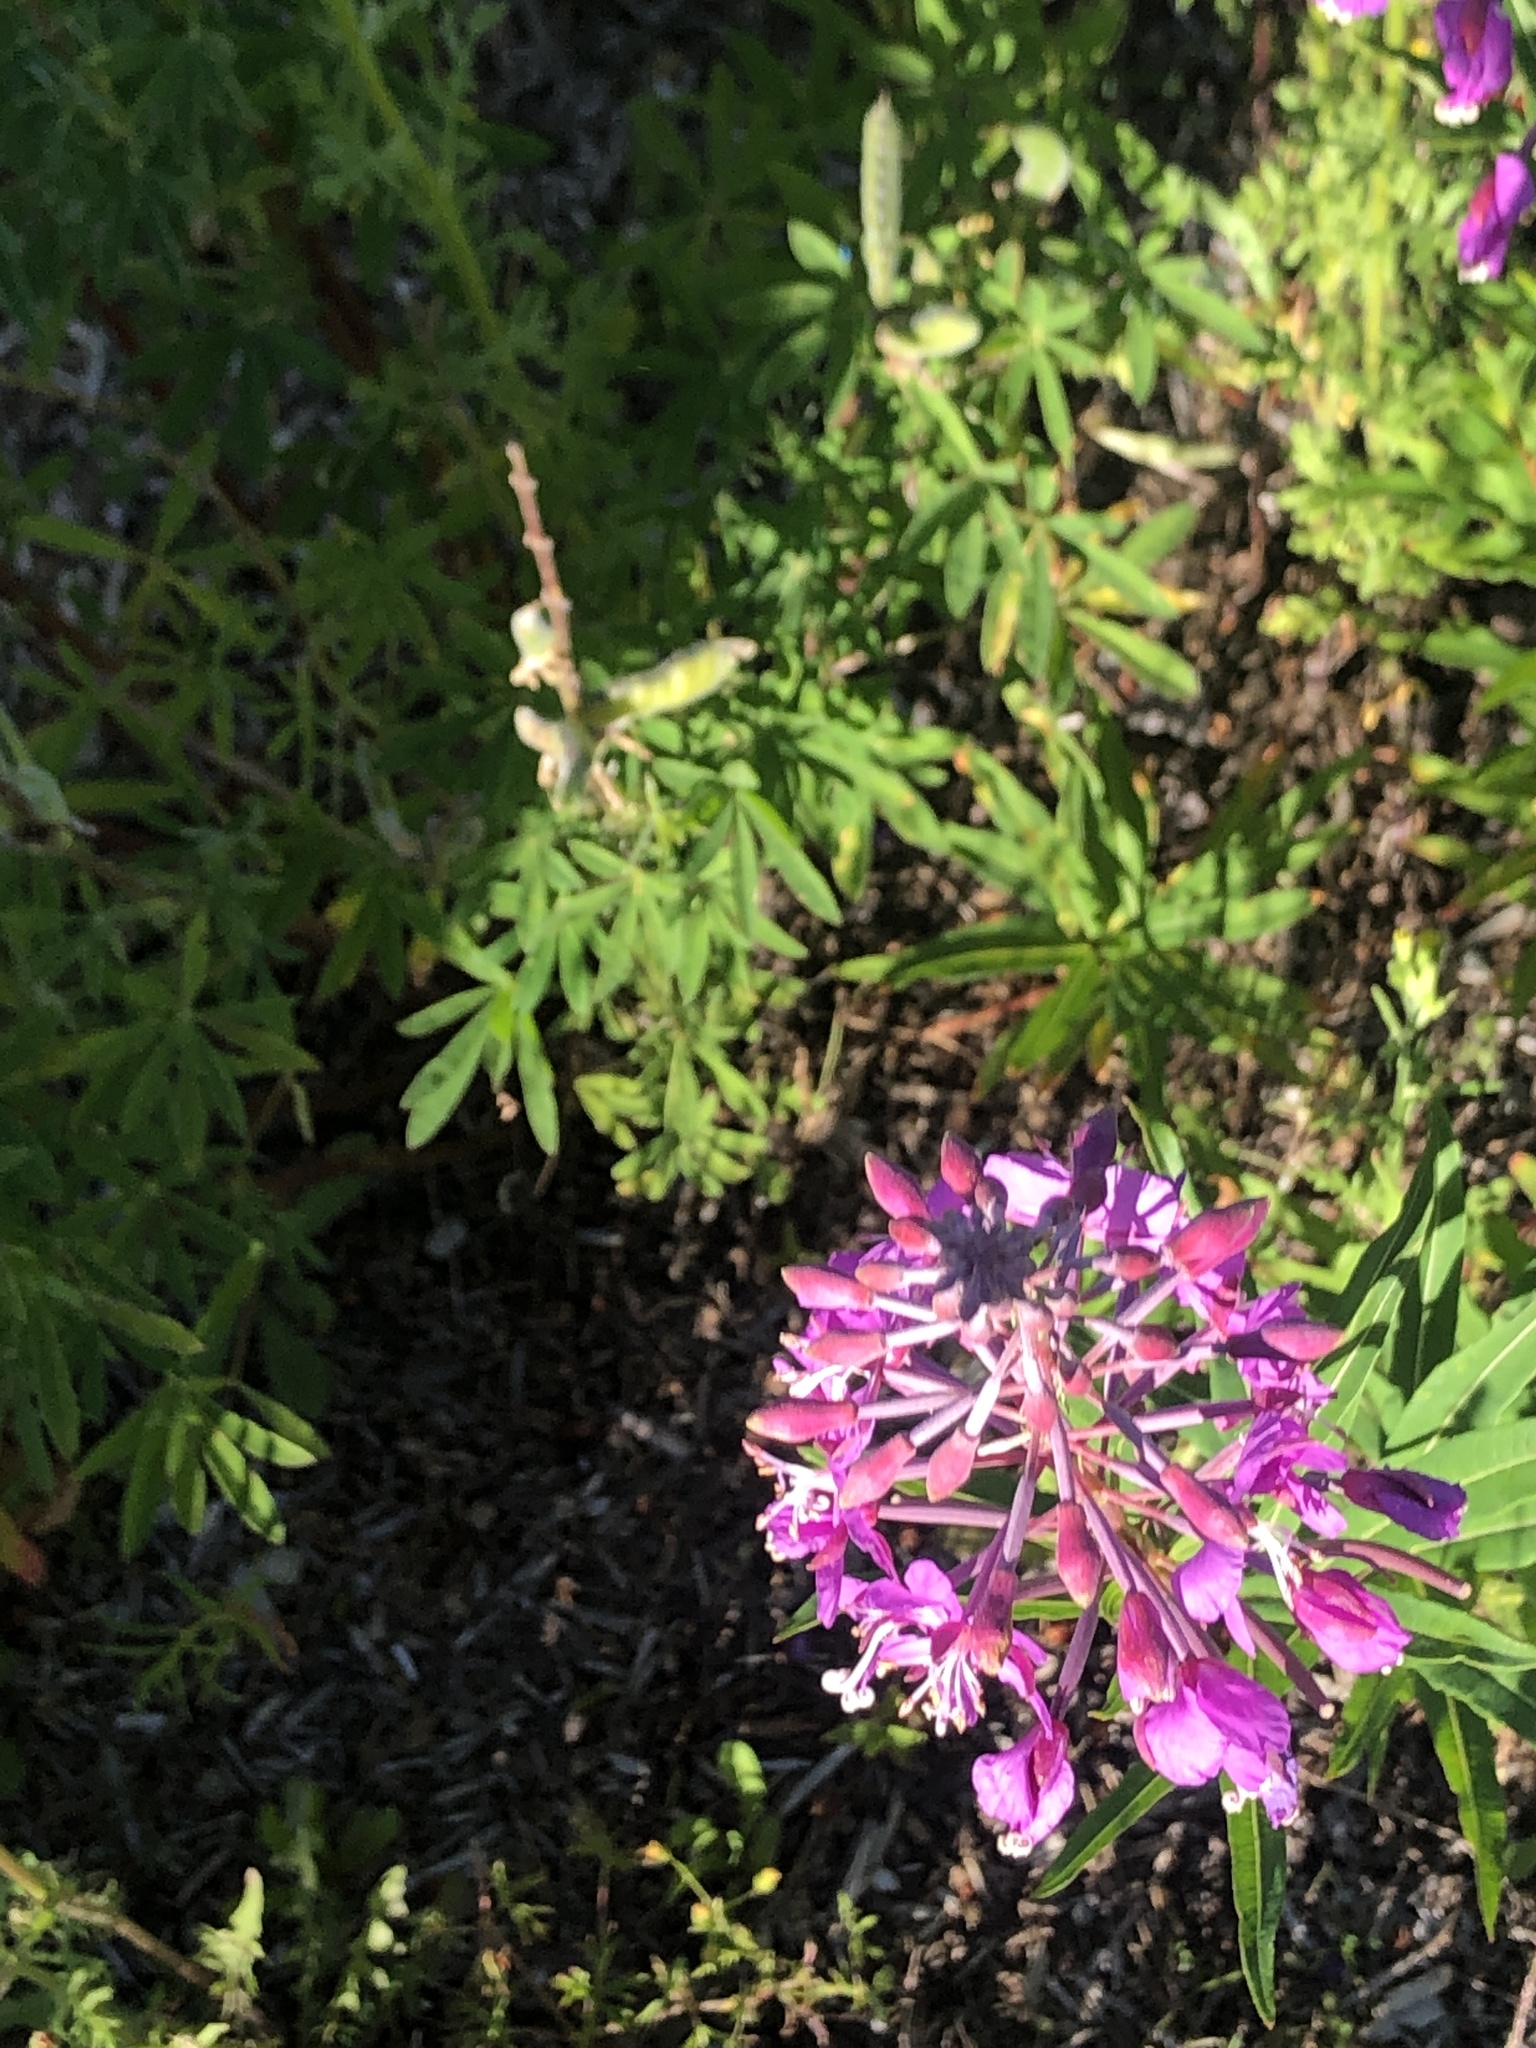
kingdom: Plantae
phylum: Tracheophyta
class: Magnoliopsida
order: Myrtales
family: Onagraceae
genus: Chamaenerion
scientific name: Chamaenerion angustifolium
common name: Fireweed
